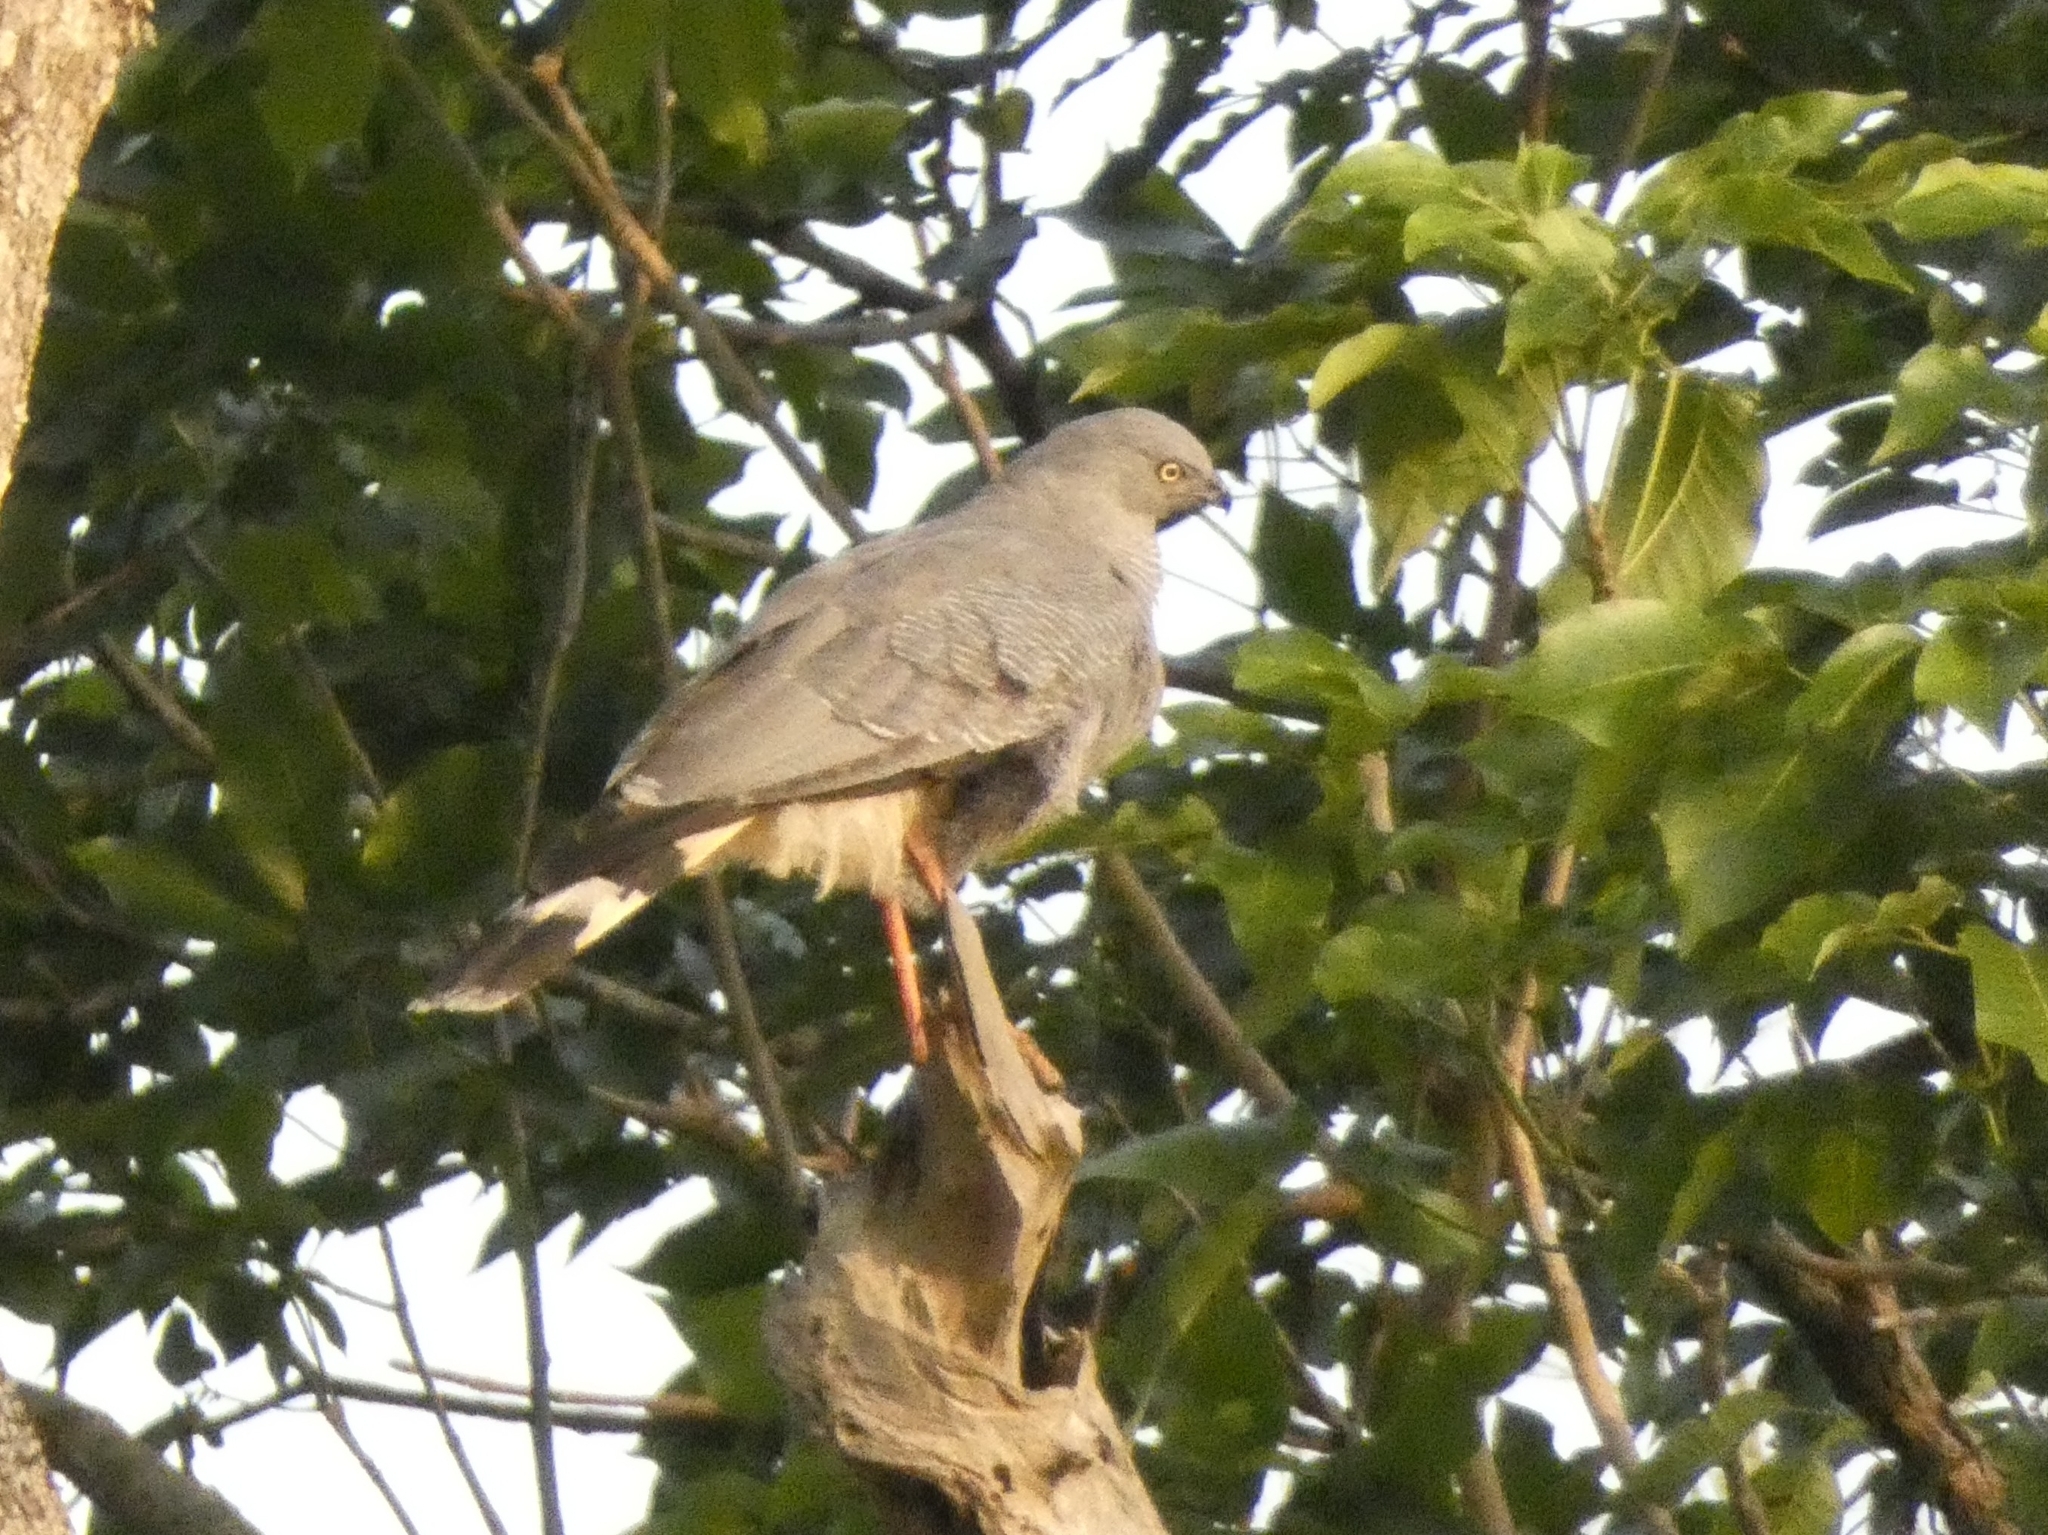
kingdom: Animalia
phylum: Chordata
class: Aves
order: Accipitriformes
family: Accipitridae
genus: Geranospiza
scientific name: Geranospiza caerulescens
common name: Crane hawk
